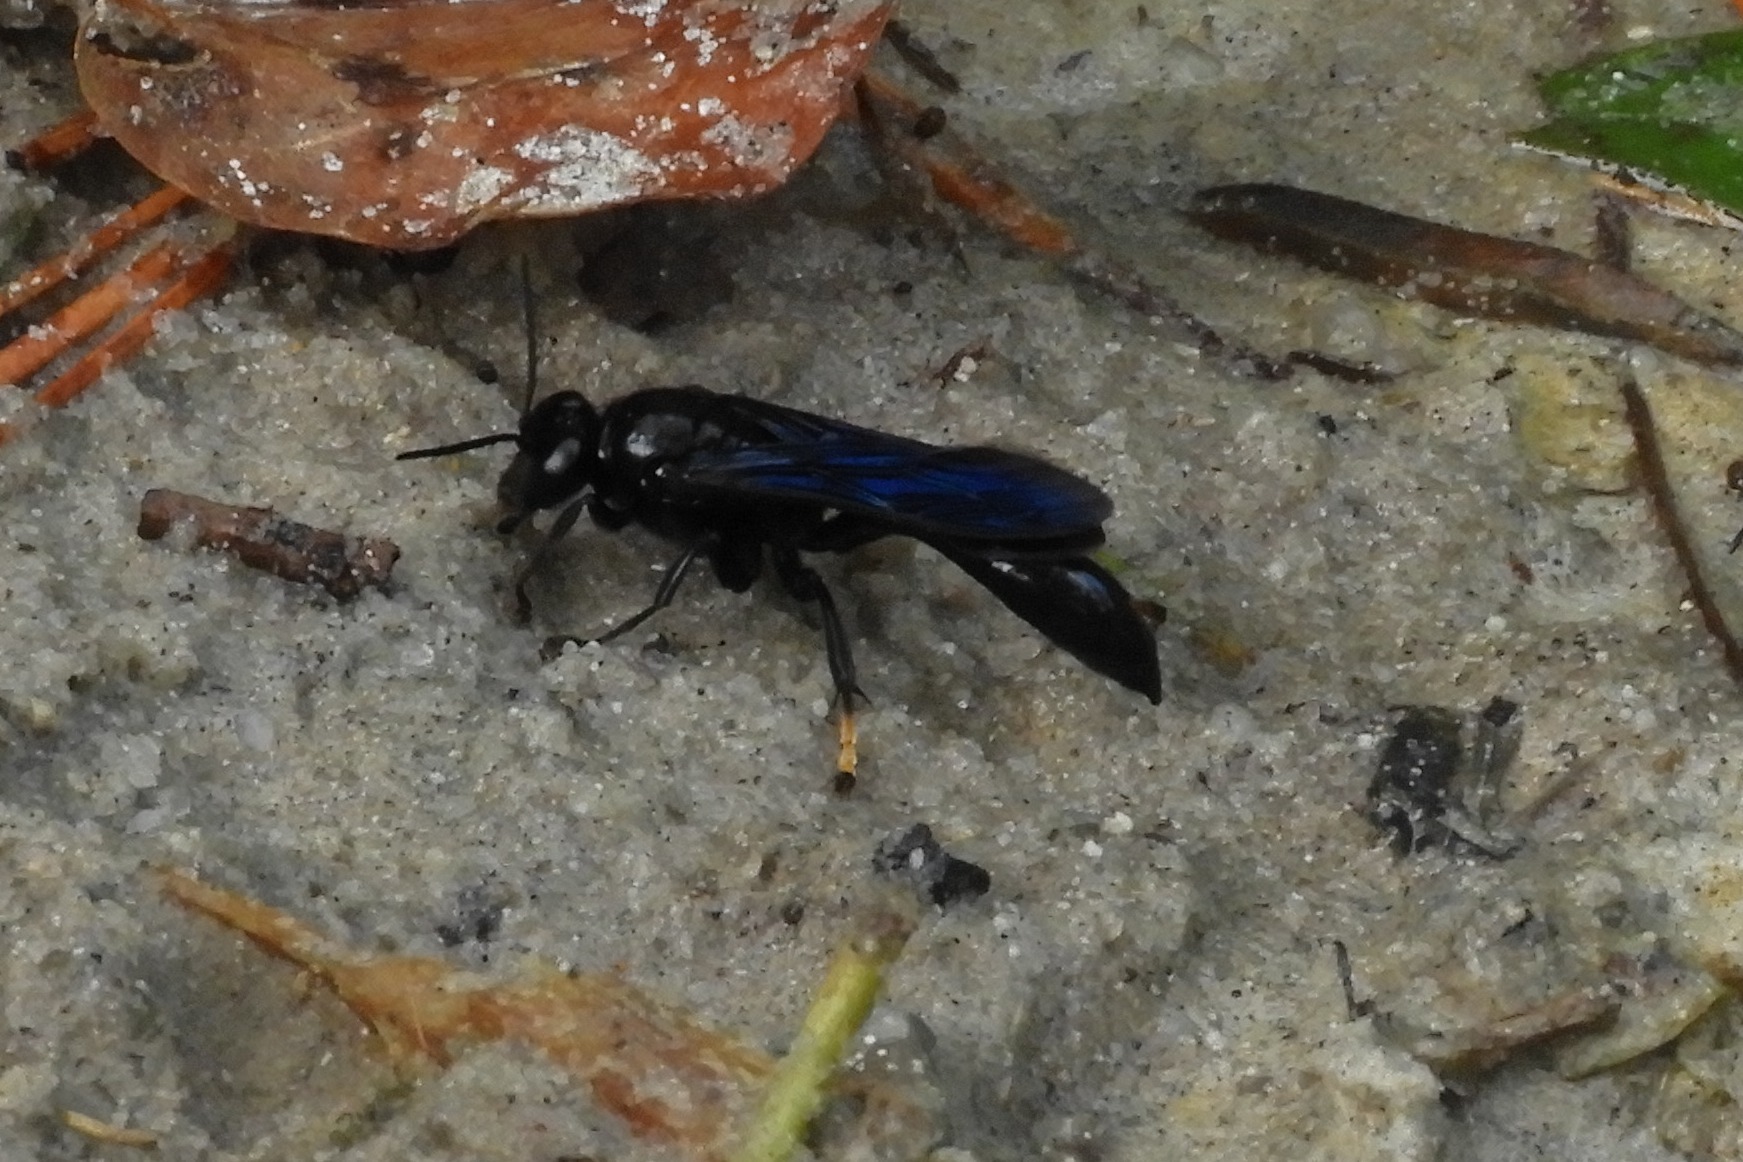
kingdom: Animalia
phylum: Arthropoda
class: Insecta
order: Hymenoptera
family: Crabronidae
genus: Trypoxylon
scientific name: Trypoxylon politum
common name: Organ-pipe mud-dauber wasp
